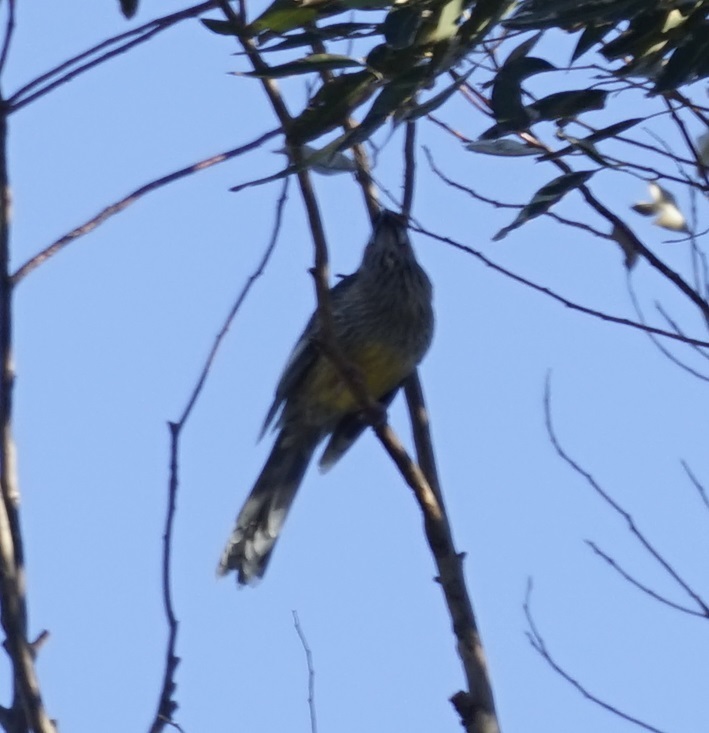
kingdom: Animalia
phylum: Chordata
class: Aves
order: Passeriformes
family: Meliphagidae
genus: Anthochaera
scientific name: Anthochaera carunculata
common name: Red wattlebird
